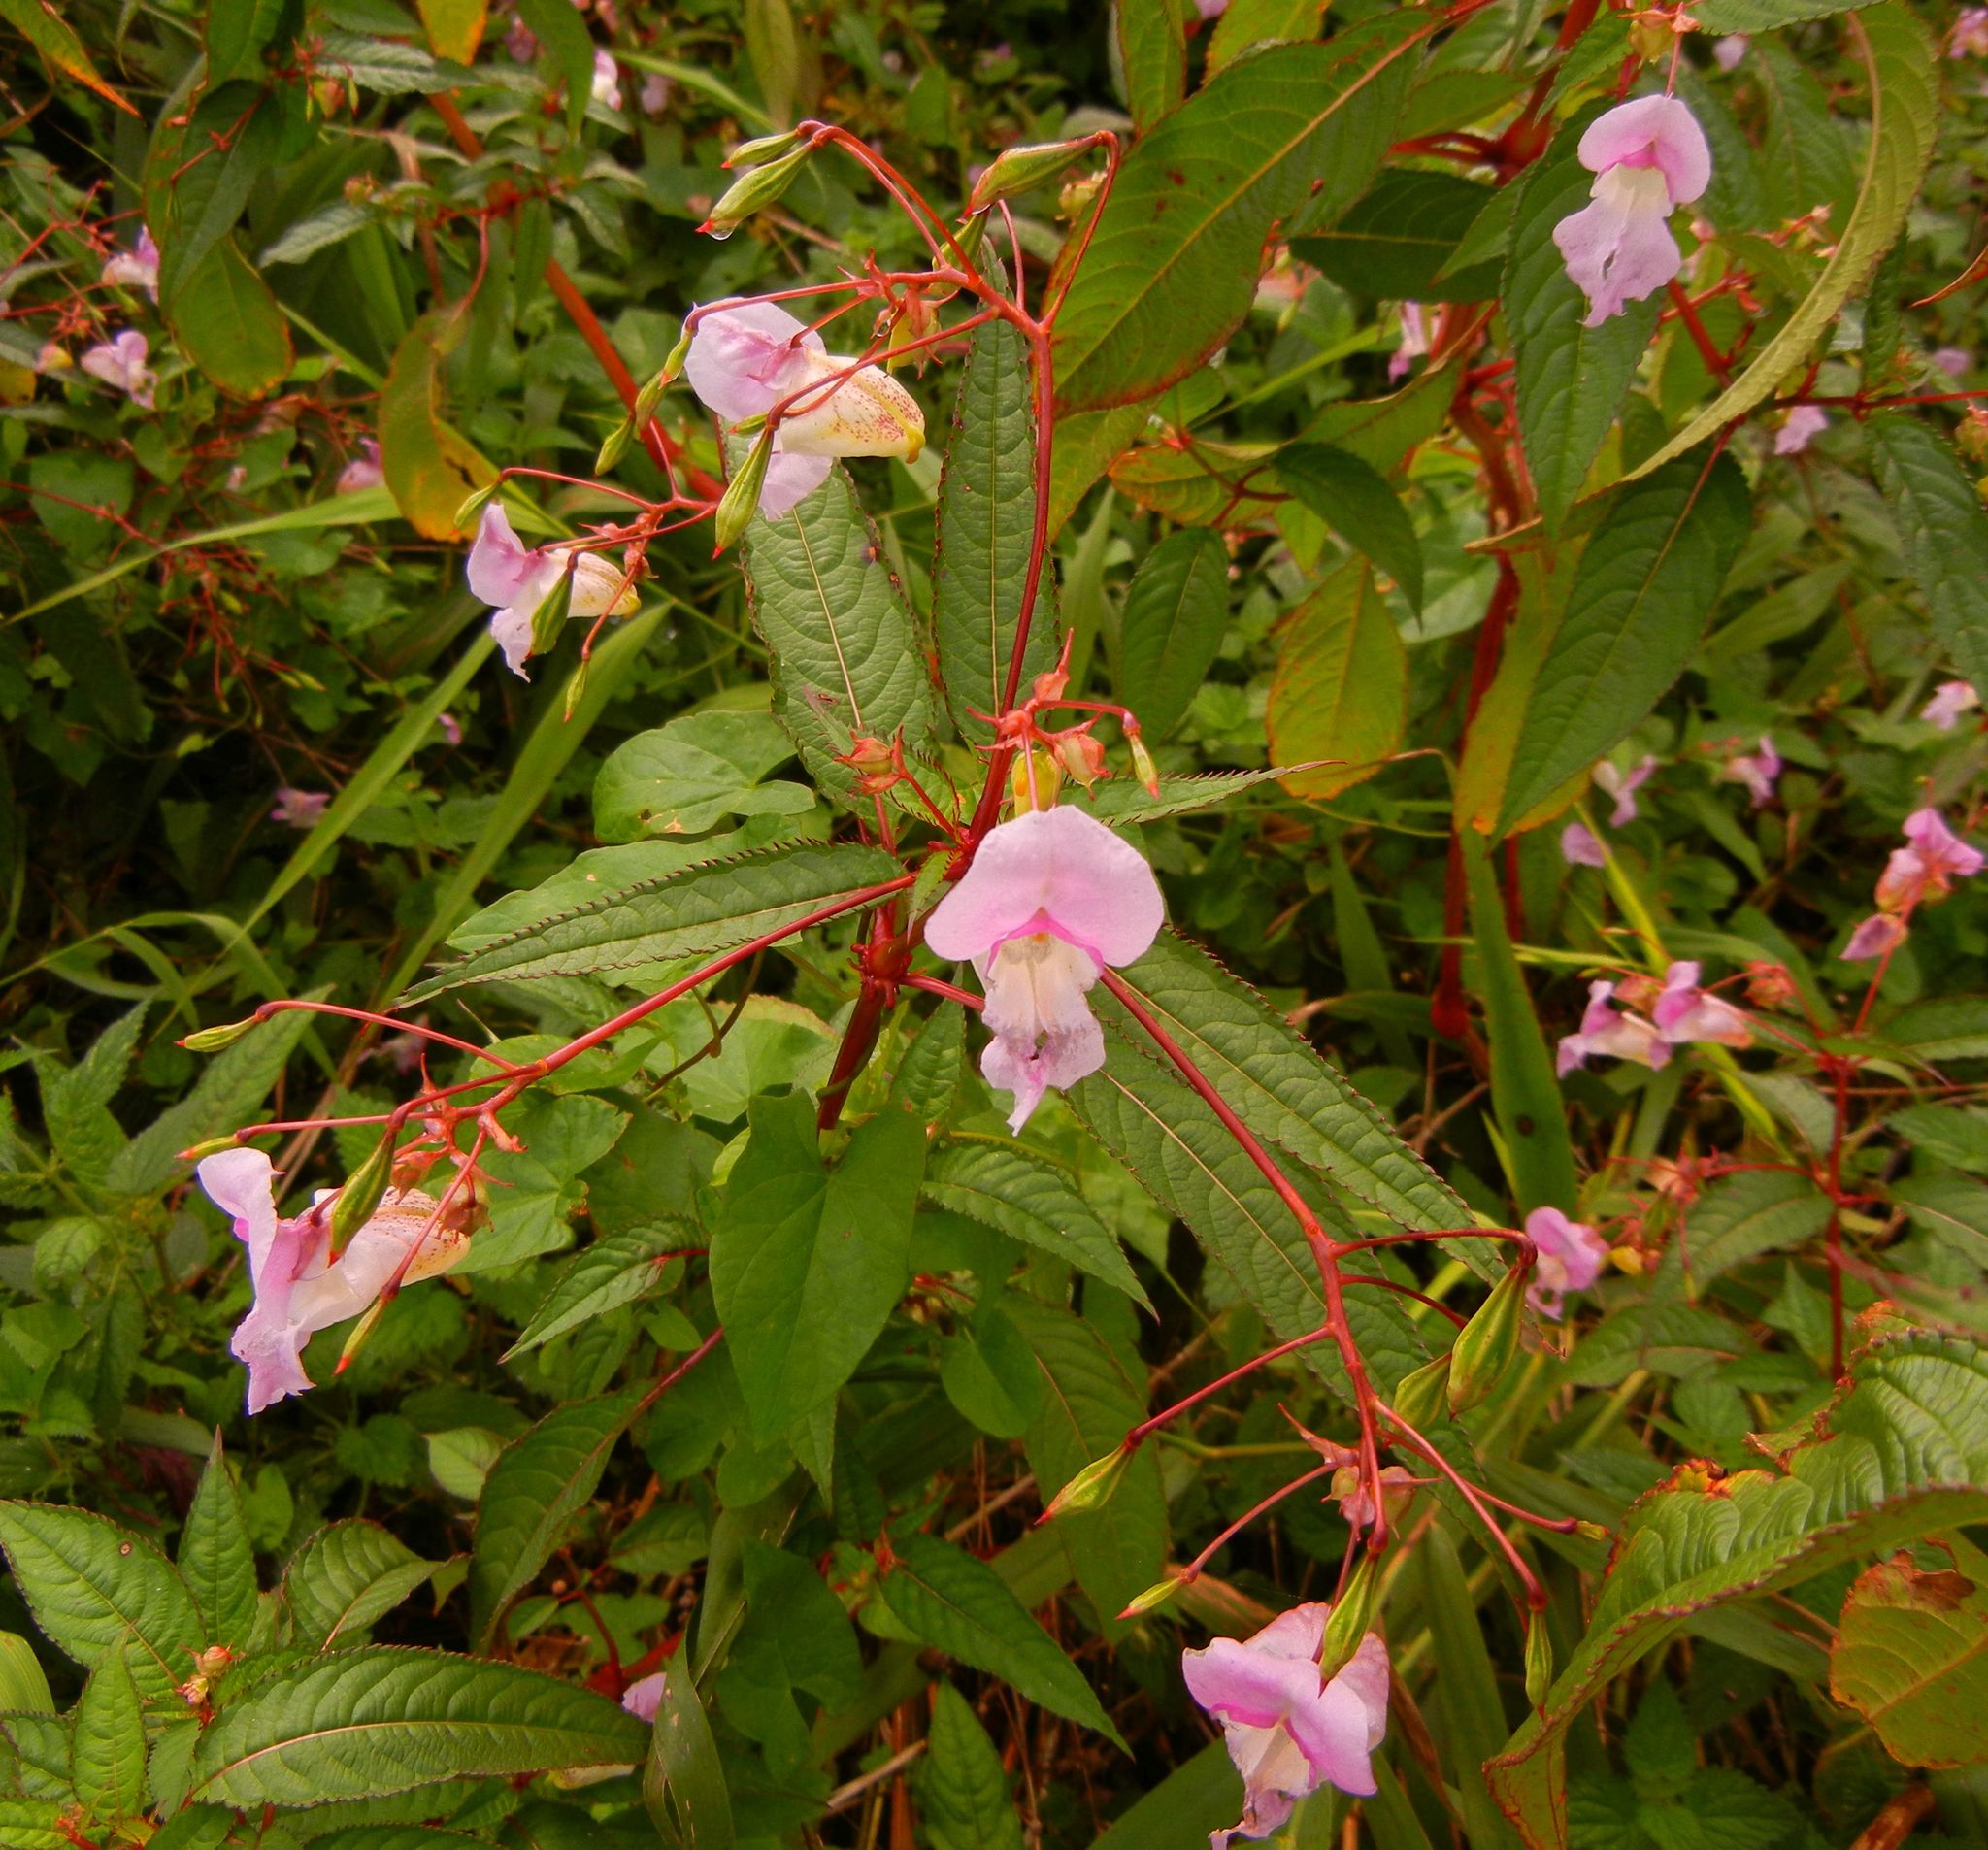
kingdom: Plantae
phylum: Tracheophyta
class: Magnoliopsida
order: Ericales
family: Balsaminaceae
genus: Impatiens
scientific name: Impatiens glandulifera
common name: Himalayan balsam
